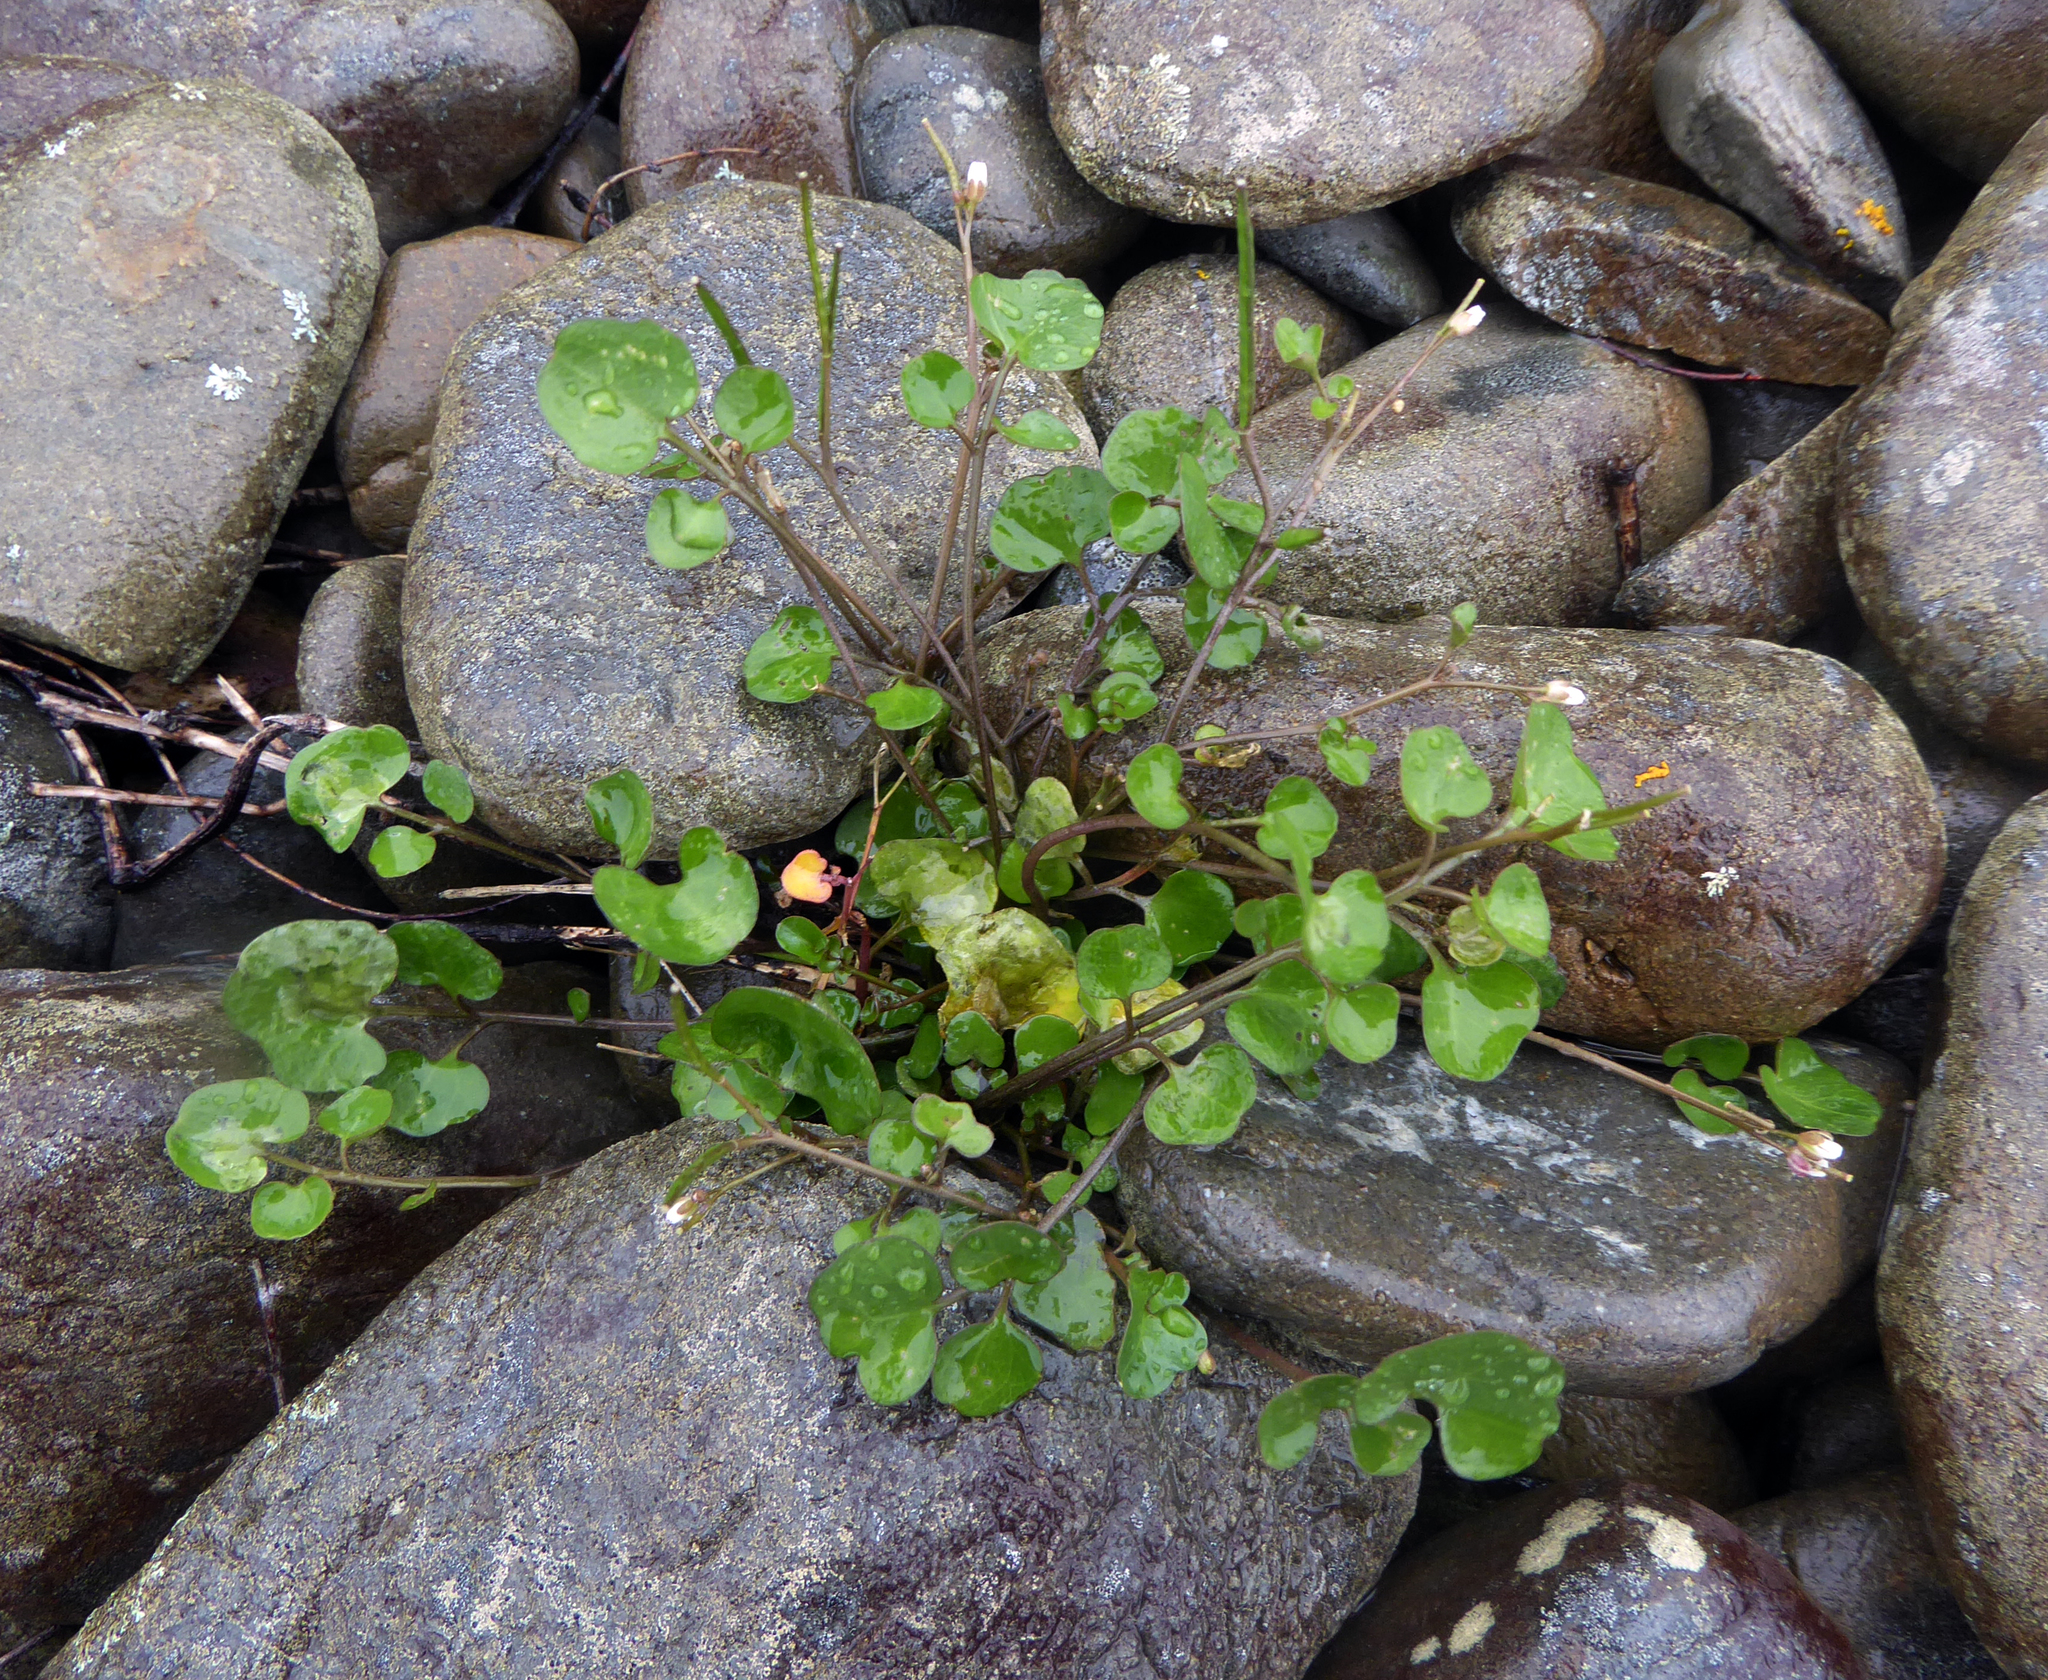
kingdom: Plantae
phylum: Tracheophyta
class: Magnoliopsida
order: Brassicales
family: Brassicaceae
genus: Cardamine
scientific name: Cardamine corymbosa
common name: New zealand bitter-cress
